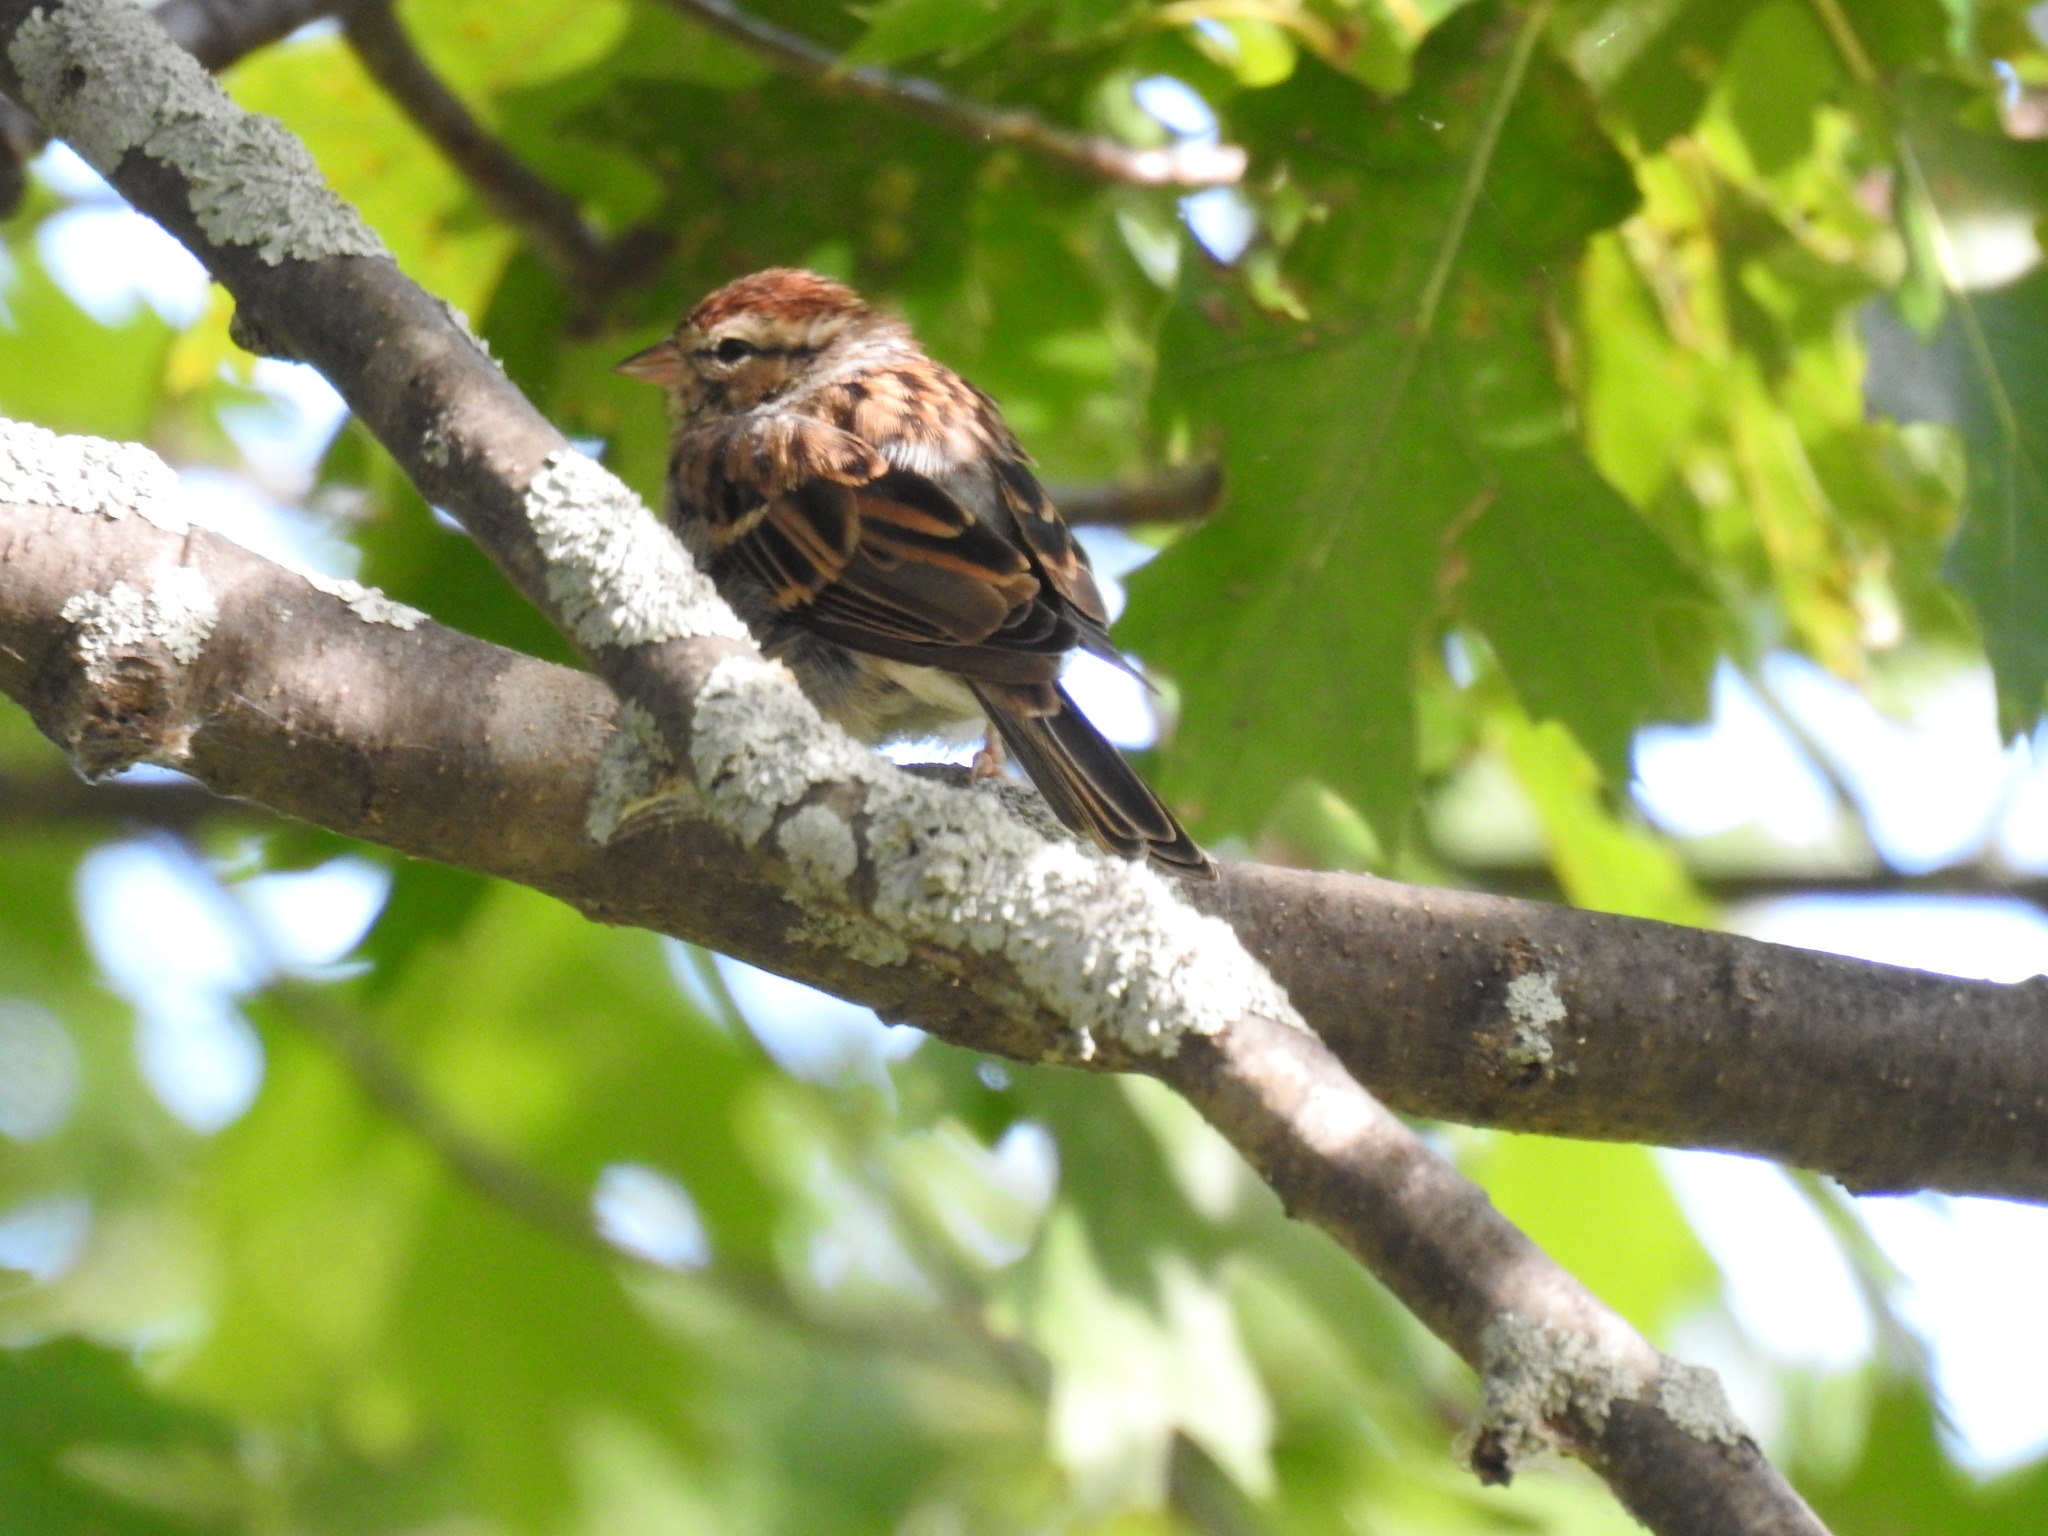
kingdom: Animalia
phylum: Chordata
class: Aves
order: Passeriformes
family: Passerellidae
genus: Spizella
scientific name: Spizella passerina
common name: Chipping sparrow
